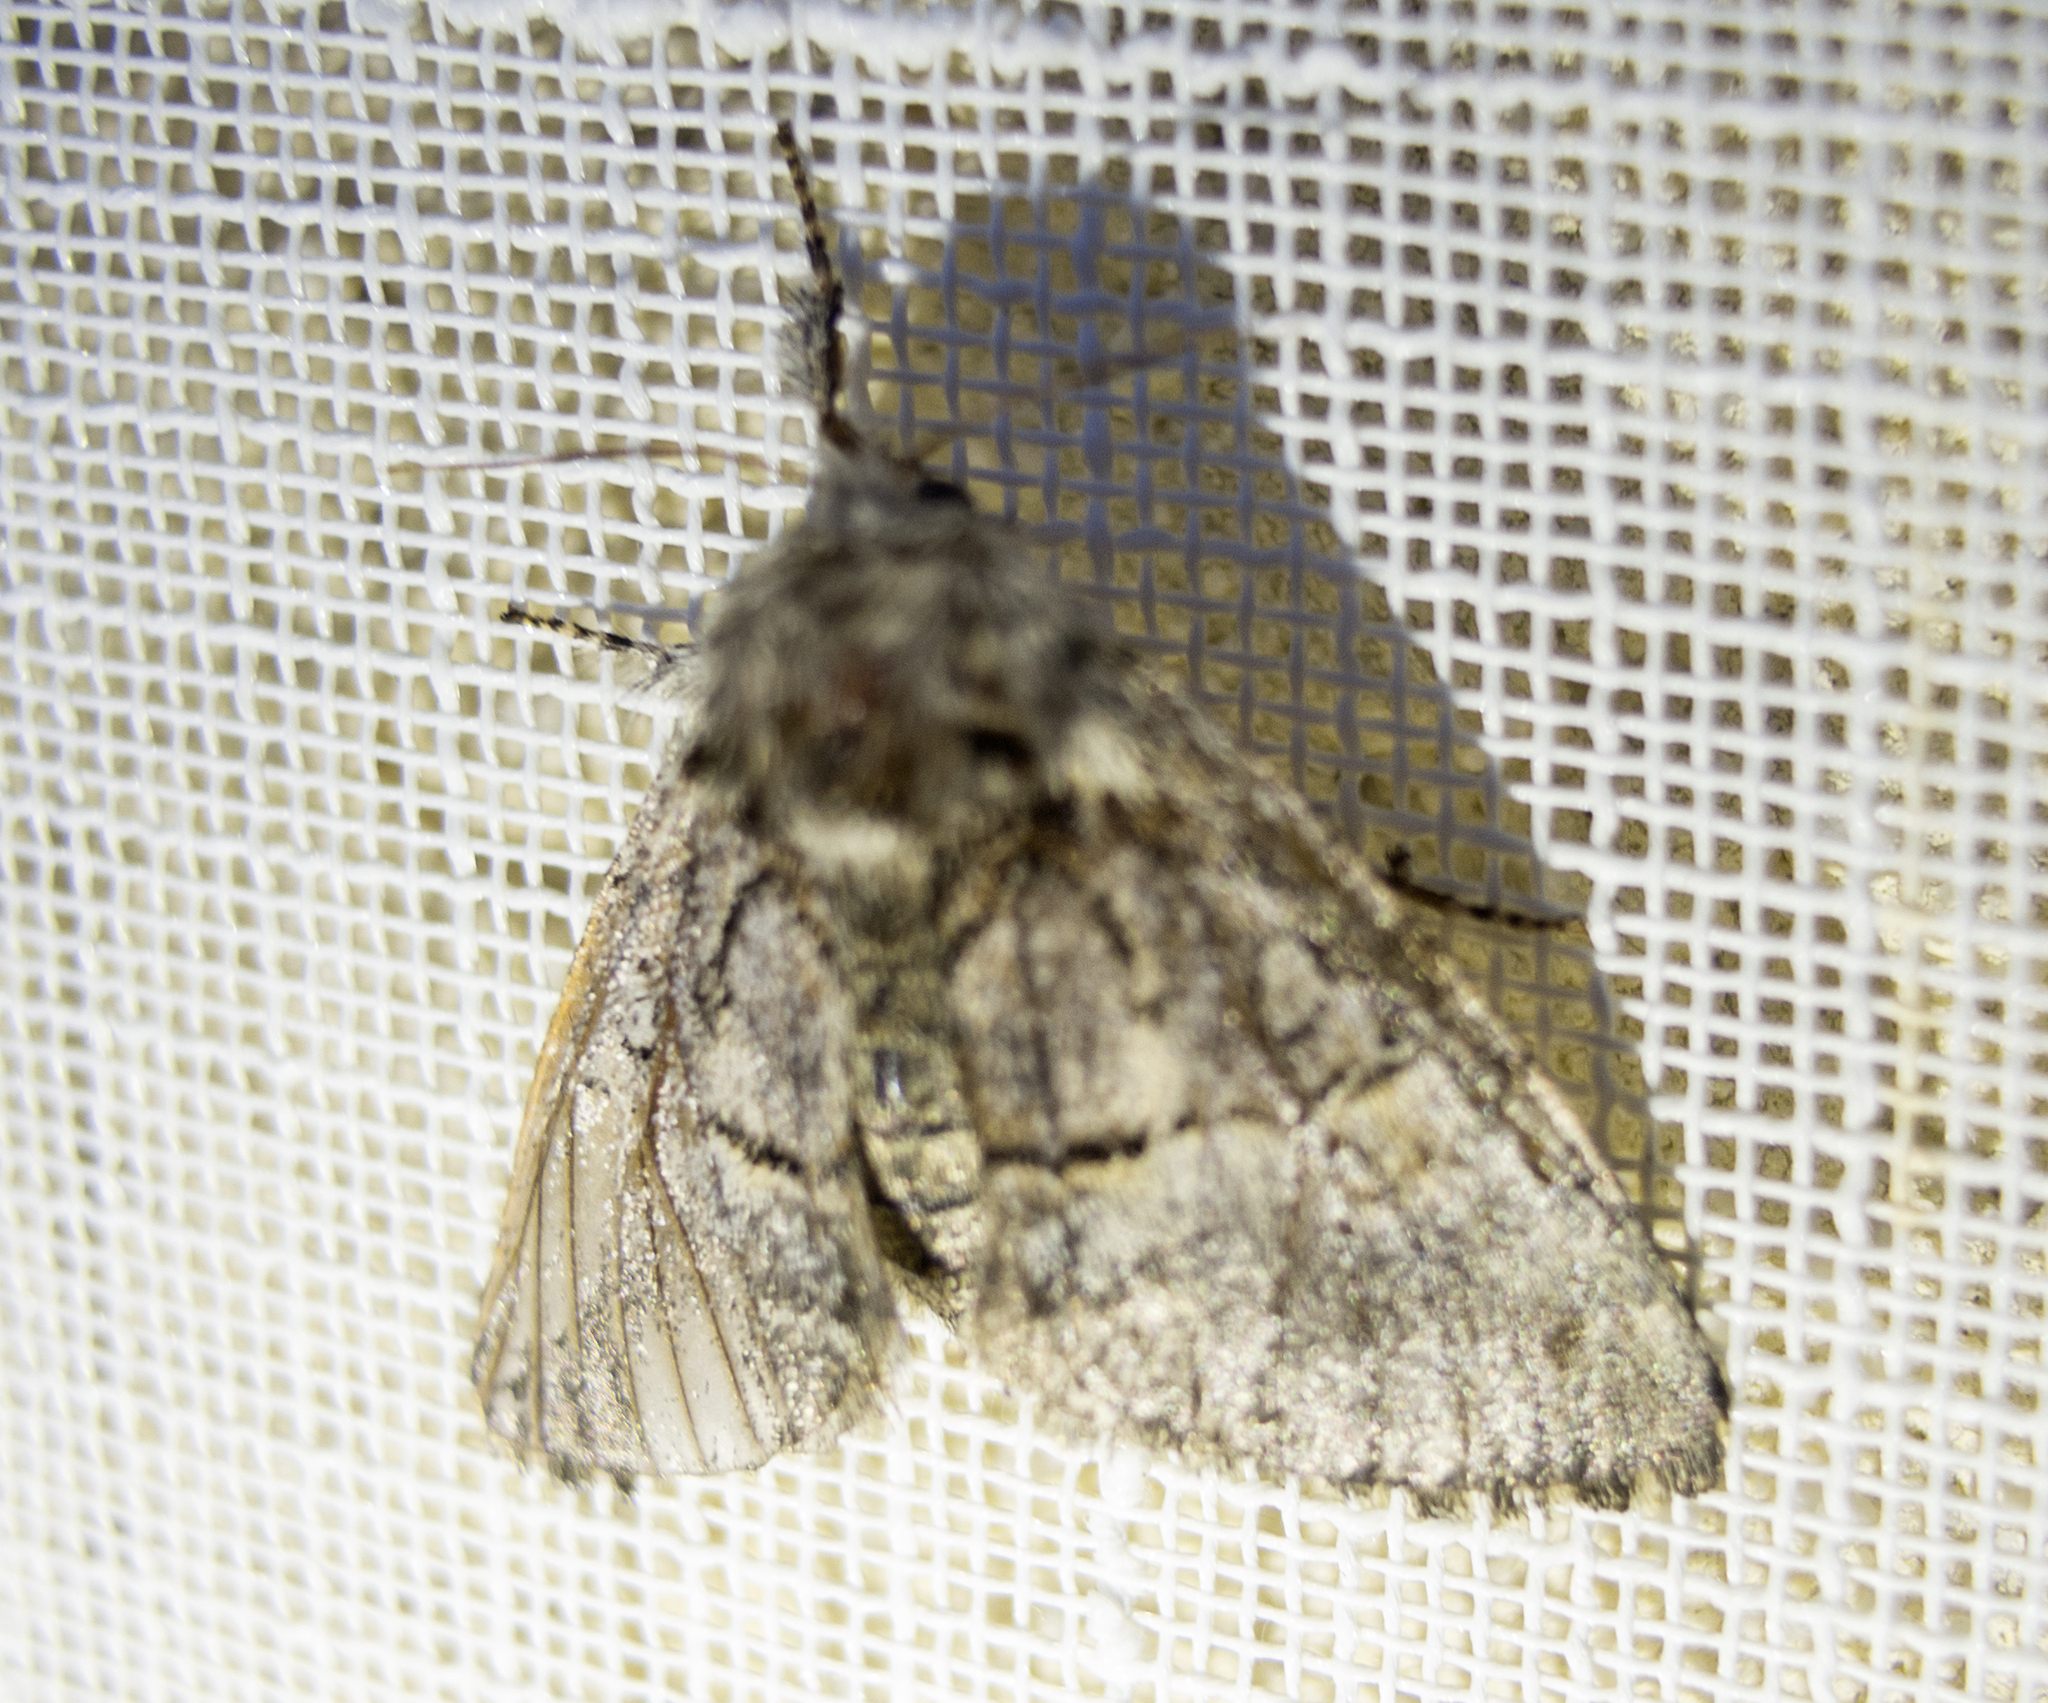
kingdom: Animalia
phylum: Arthropoda
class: Insecta
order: Lepidoptera
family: Noctuidae
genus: Colocasia
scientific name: Colocasia coryli
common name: Nut-tree tussock
